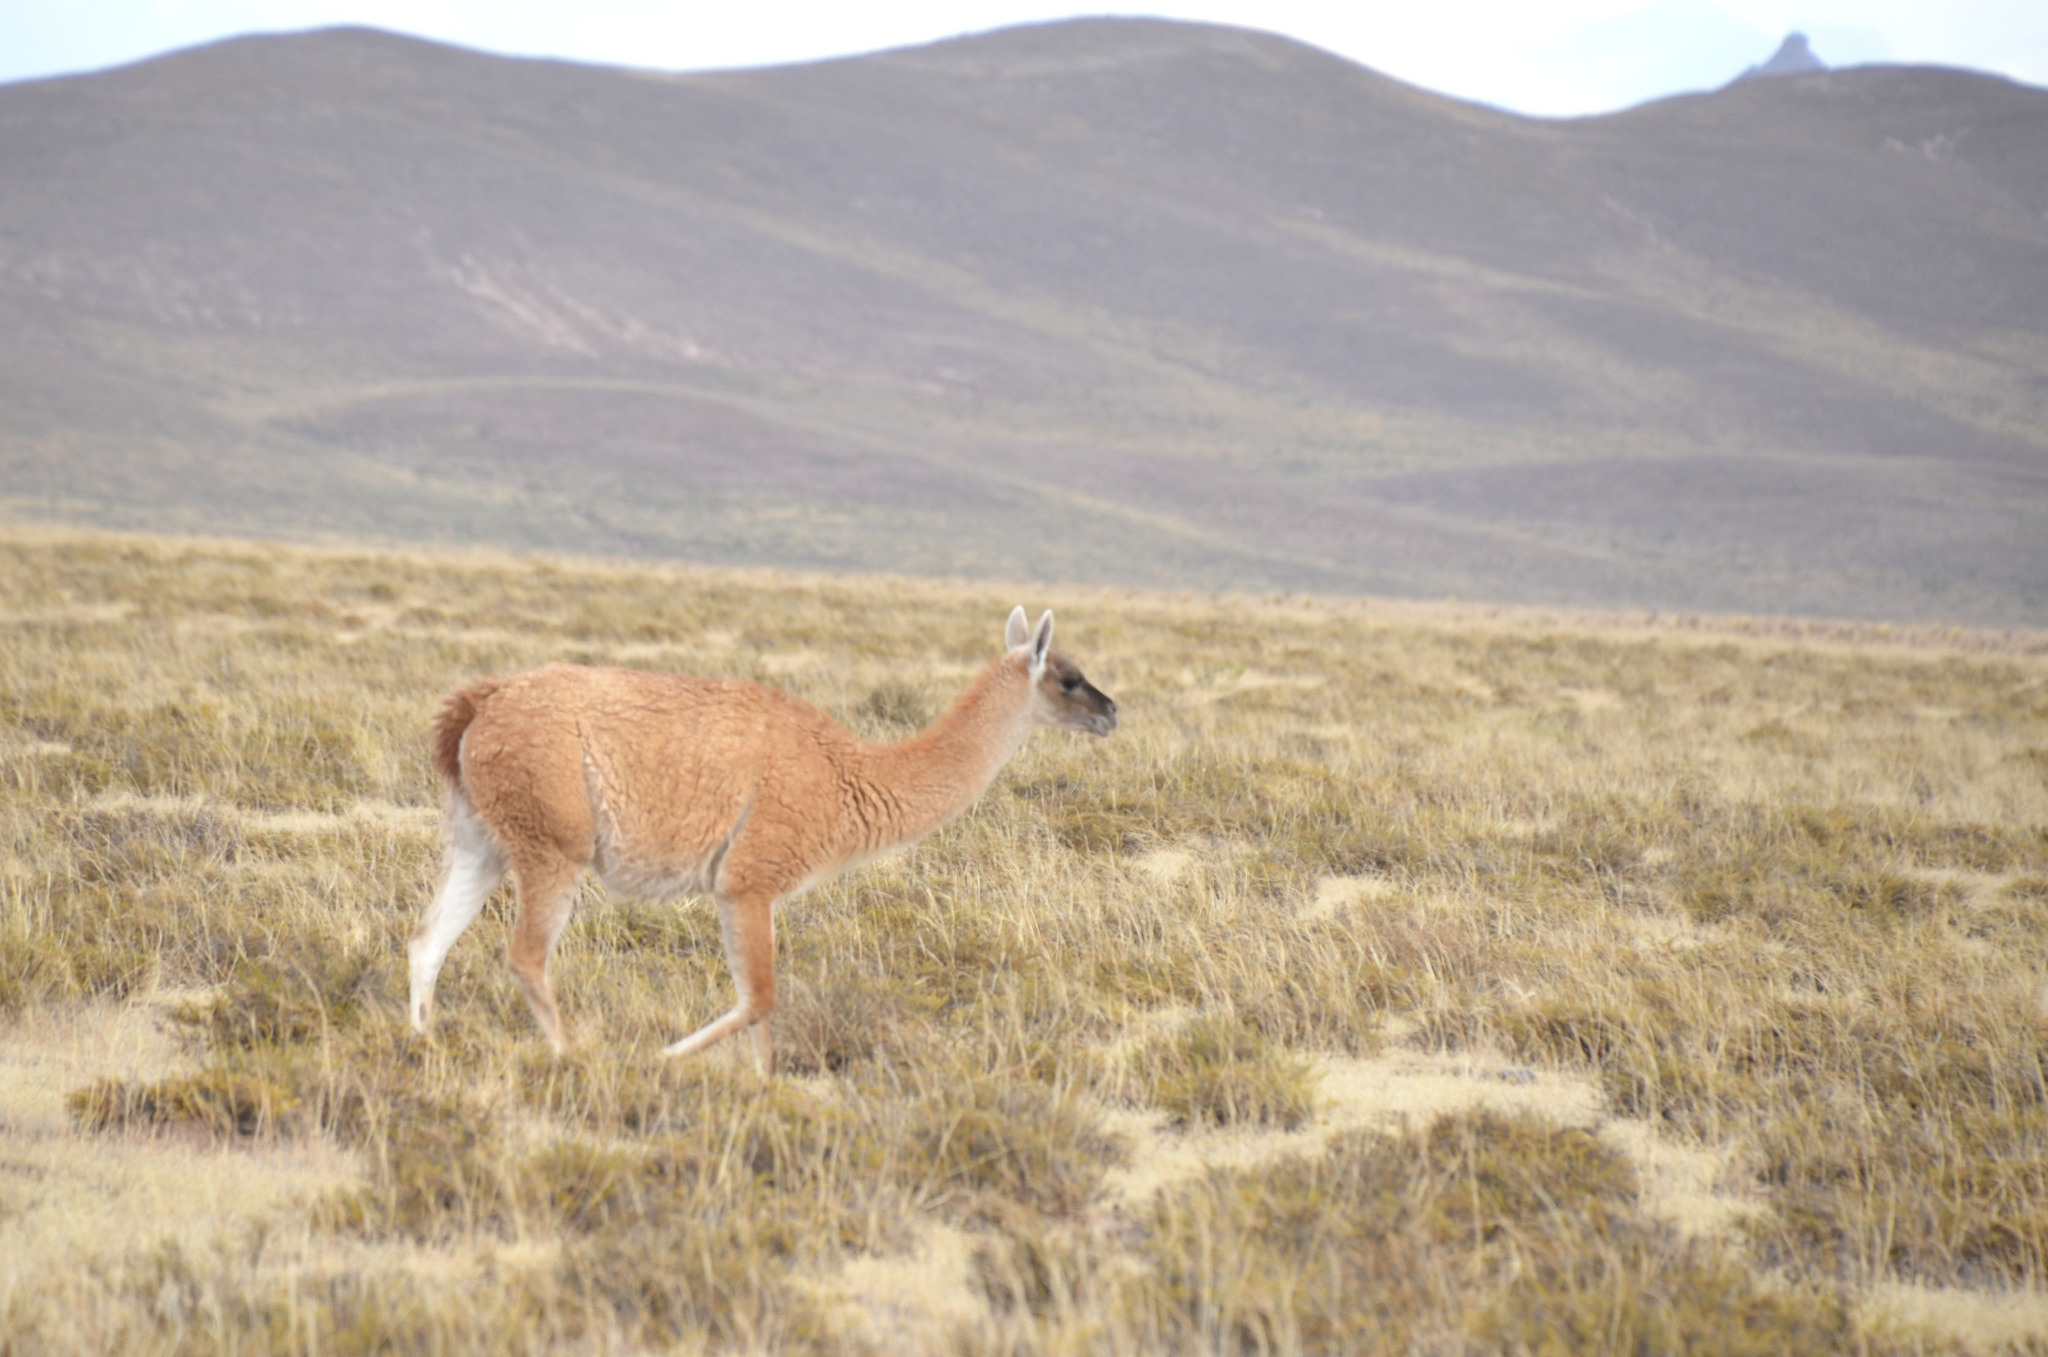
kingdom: Animalia
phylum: Chordata
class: Mammalia
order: Artiodactyla
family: Camelidae
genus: Lama
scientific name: Lama glama
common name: Llama
